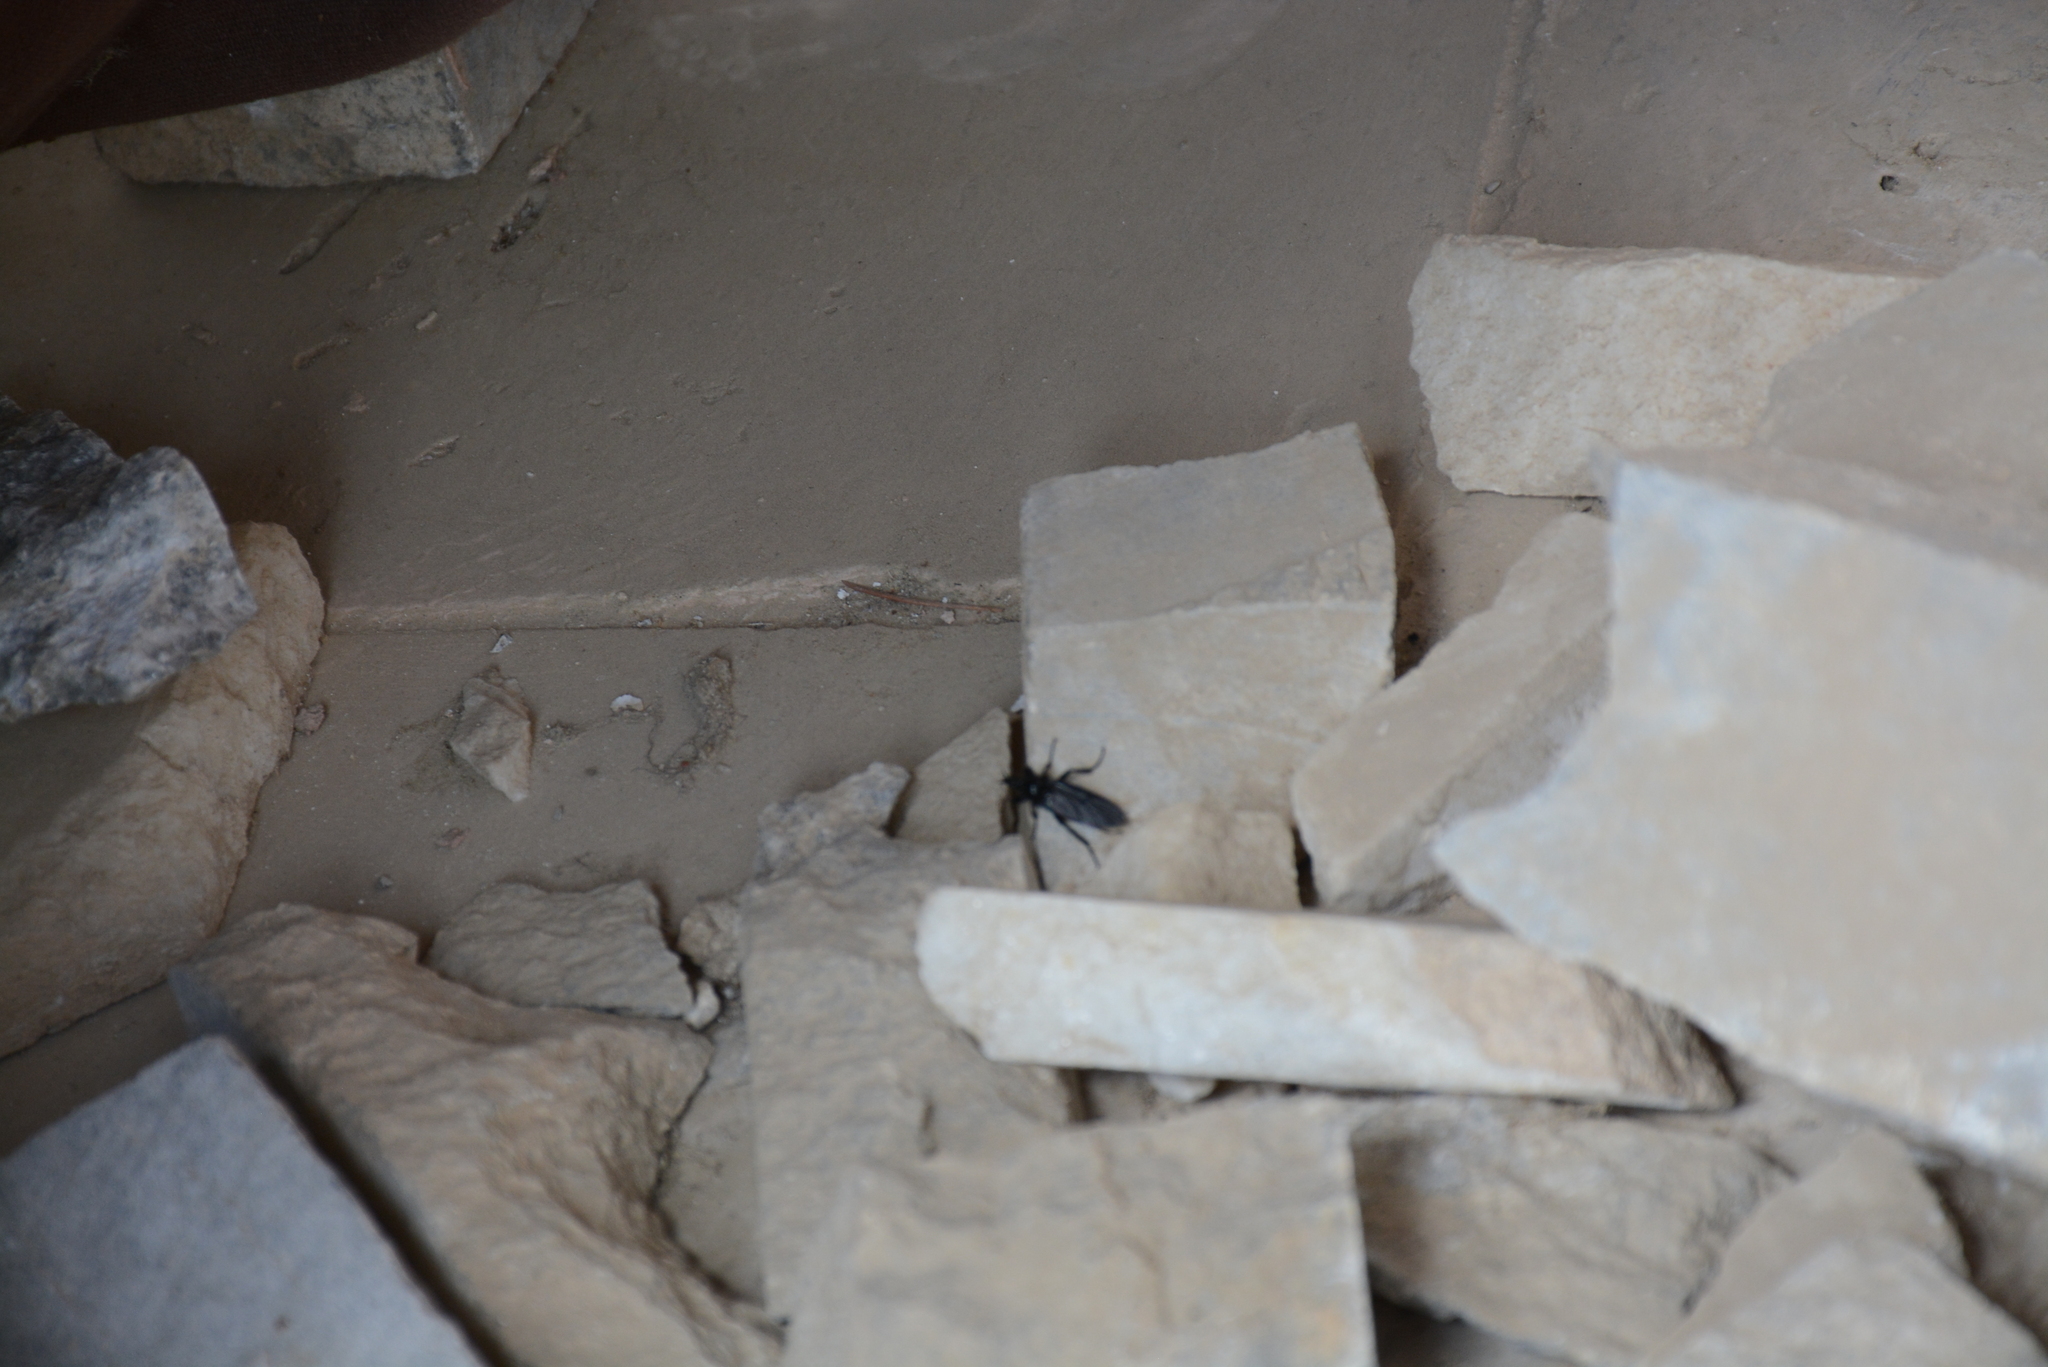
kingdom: Animalia
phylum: Arthropoda
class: Insecta
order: Diptera
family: Bibionidae
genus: Bibio
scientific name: Bibio marci
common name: St marks fly
